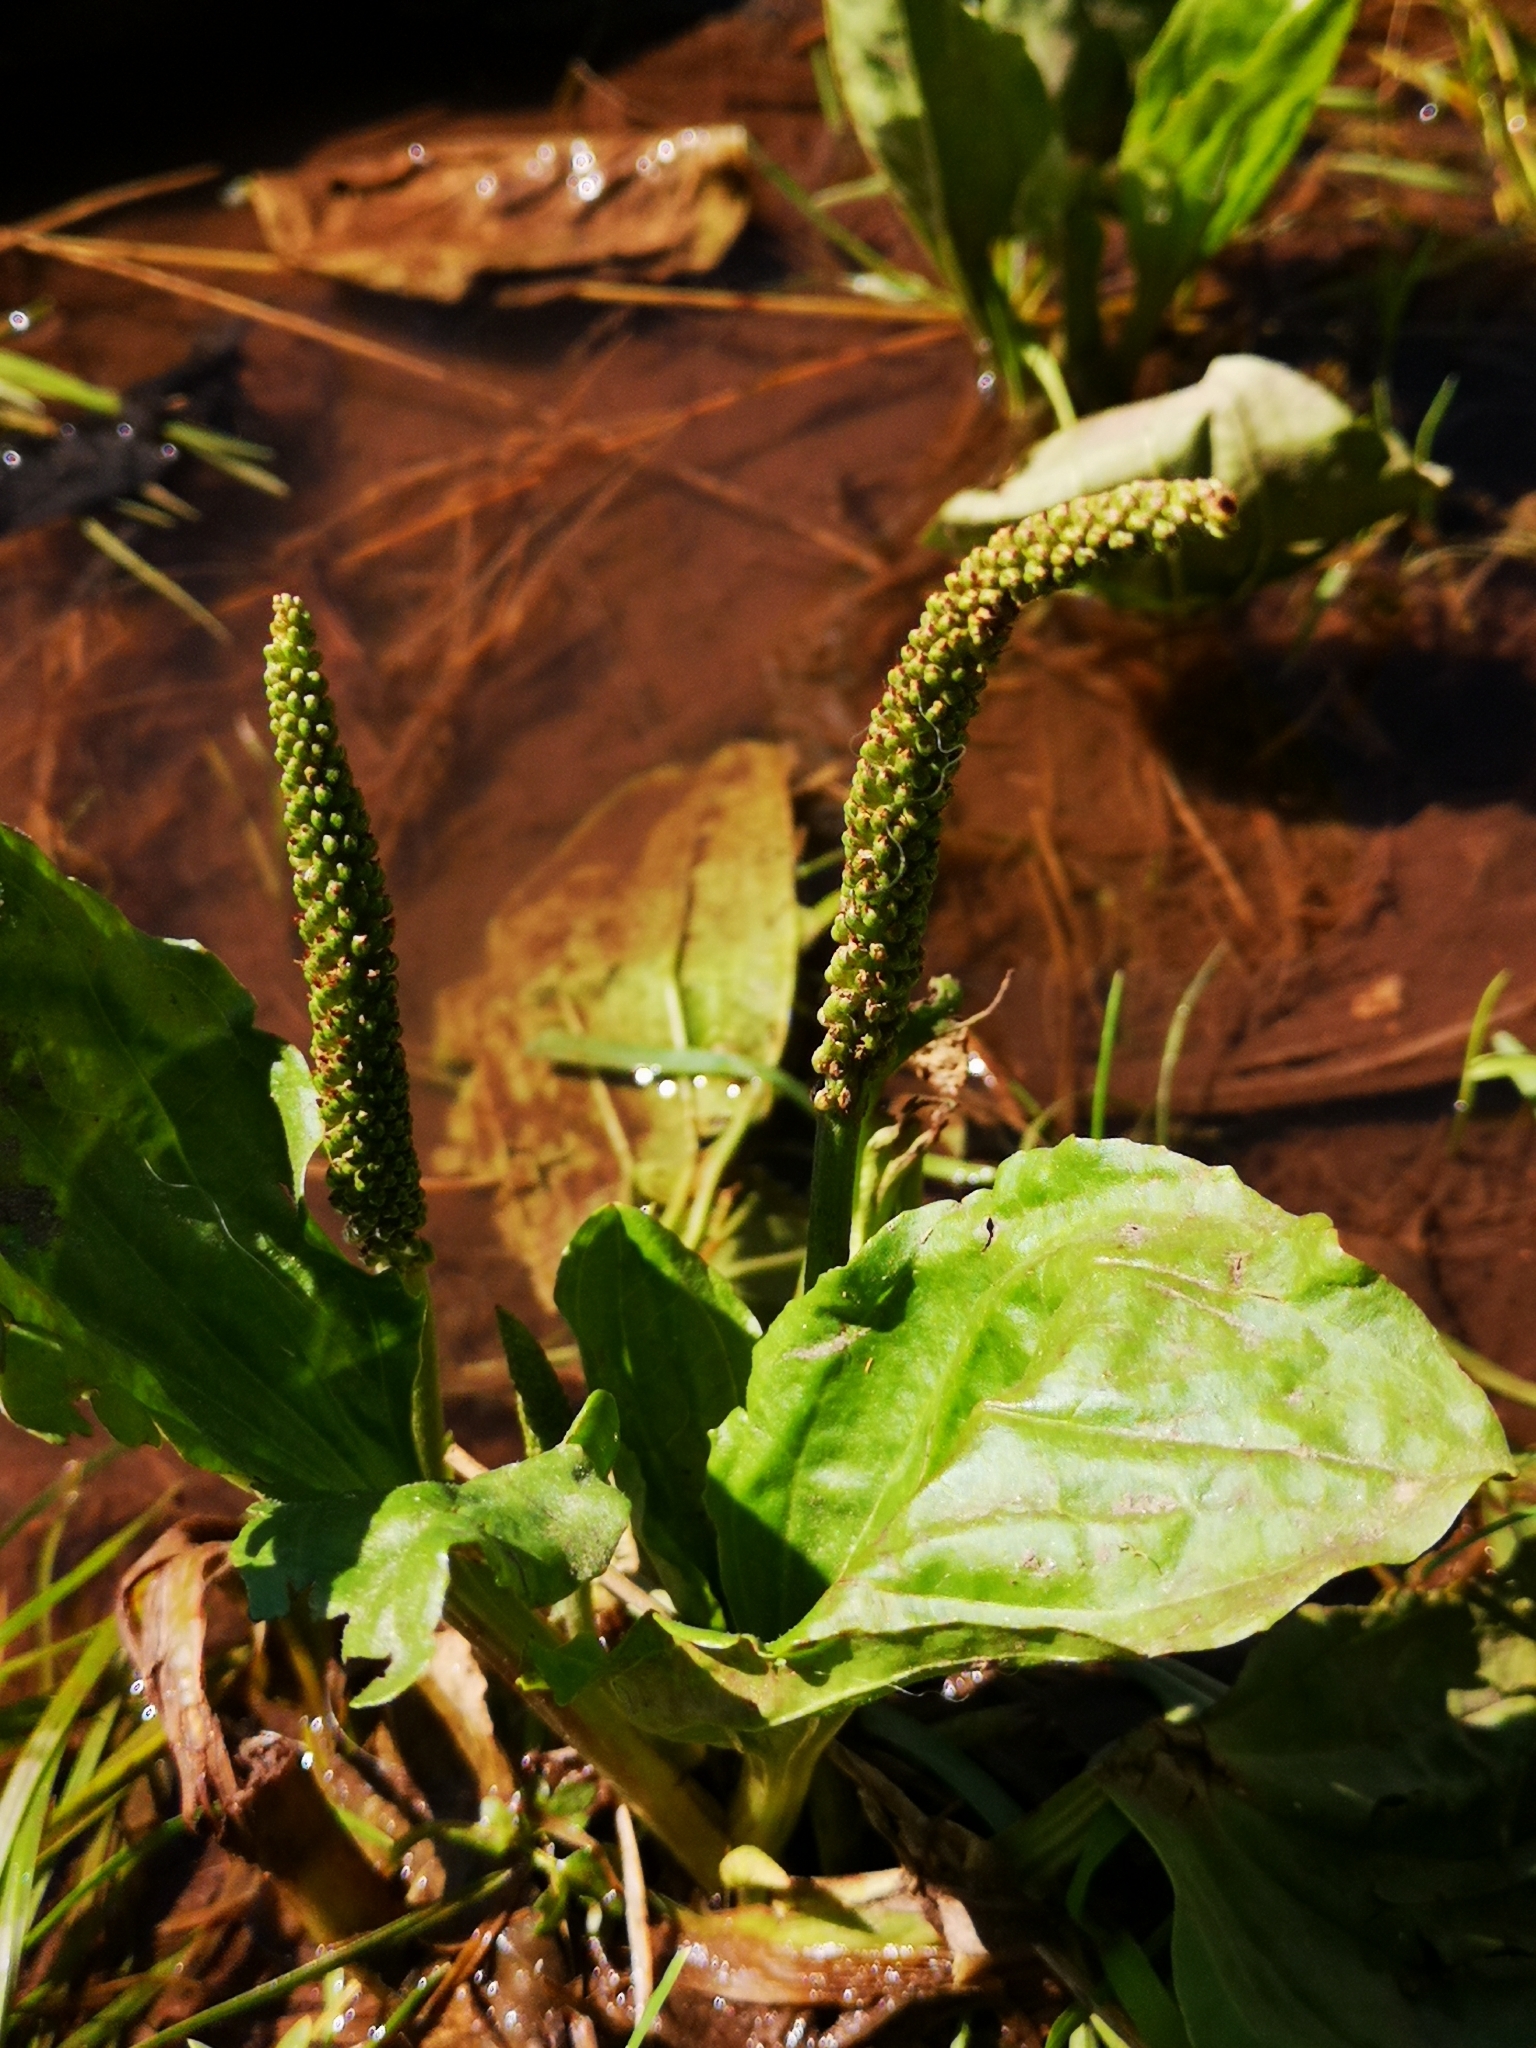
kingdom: Plantae
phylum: Tracheophyta
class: Magnoliopsida
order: Lamiales
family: Plantaginaceae
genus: Plantago
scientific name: Plantago major
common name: Common plantain
